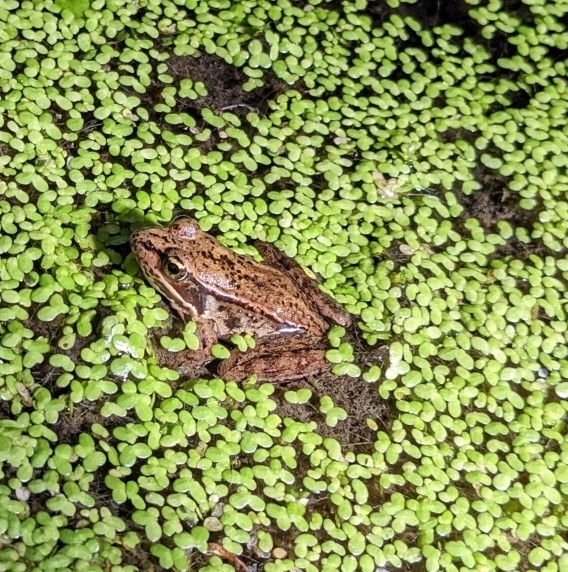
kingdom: Animalia
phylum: Chordata
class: Amphibia
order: Anura
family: Ranidae
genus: Rana
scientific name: Rana aurora
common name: Red-legged frog
